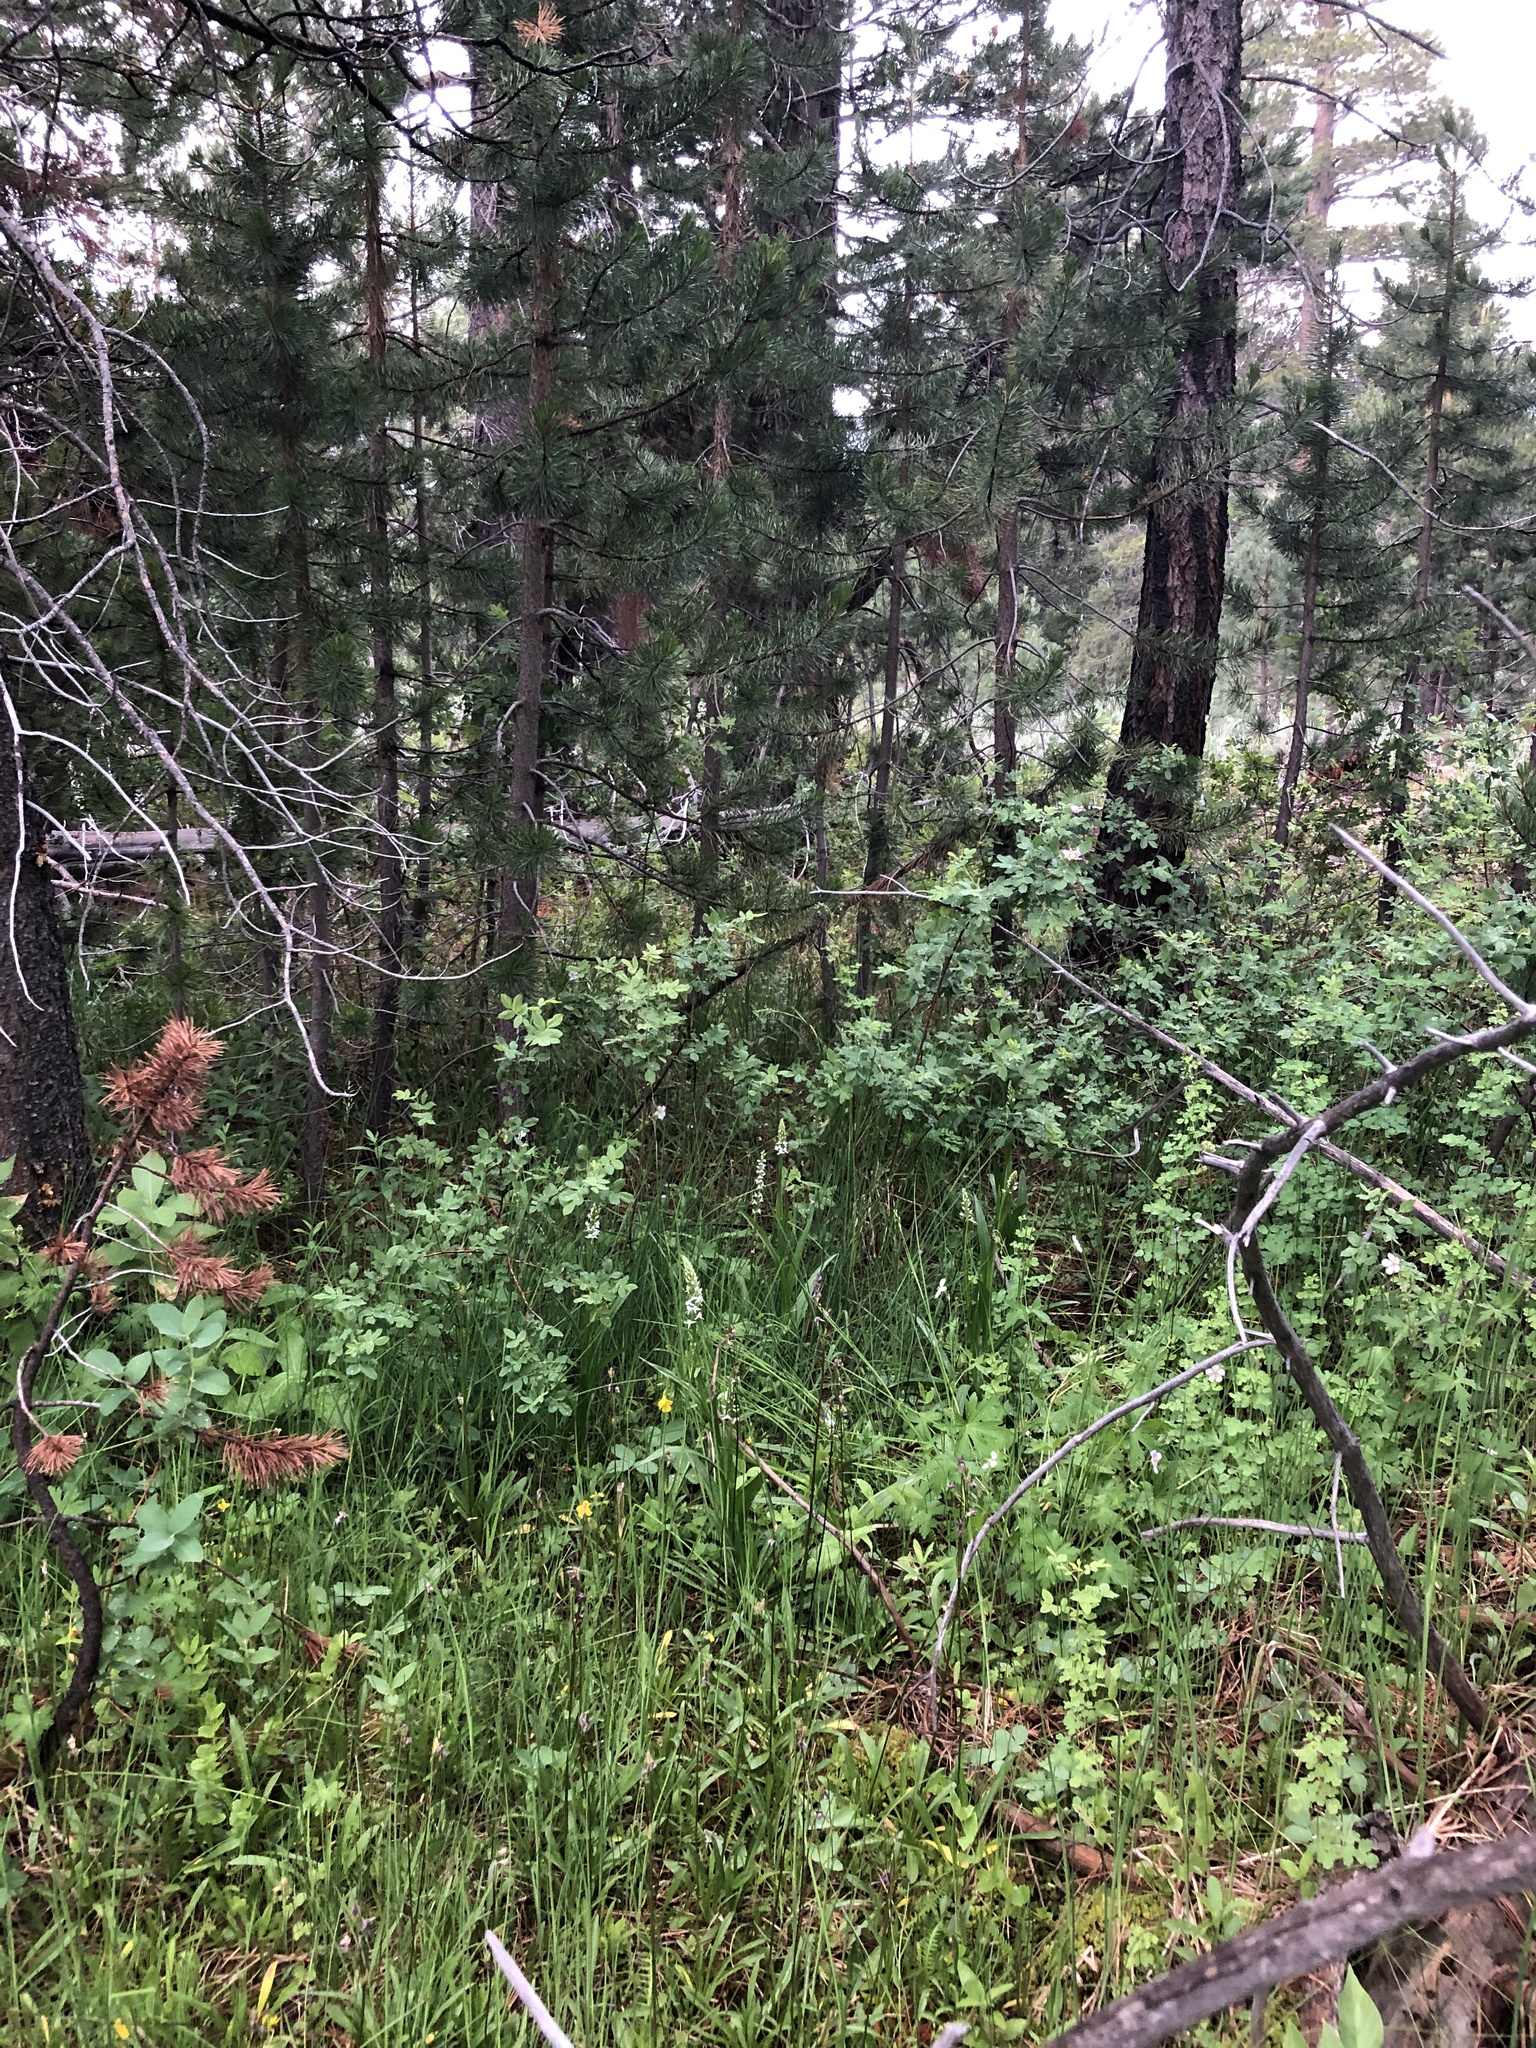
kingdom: Plantae
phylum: Tracheophyta
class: Liliopsida
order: Asparagales
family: Orchidaceae
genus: Platanthera
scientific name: Platanthera dilatata
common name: Bog candles
